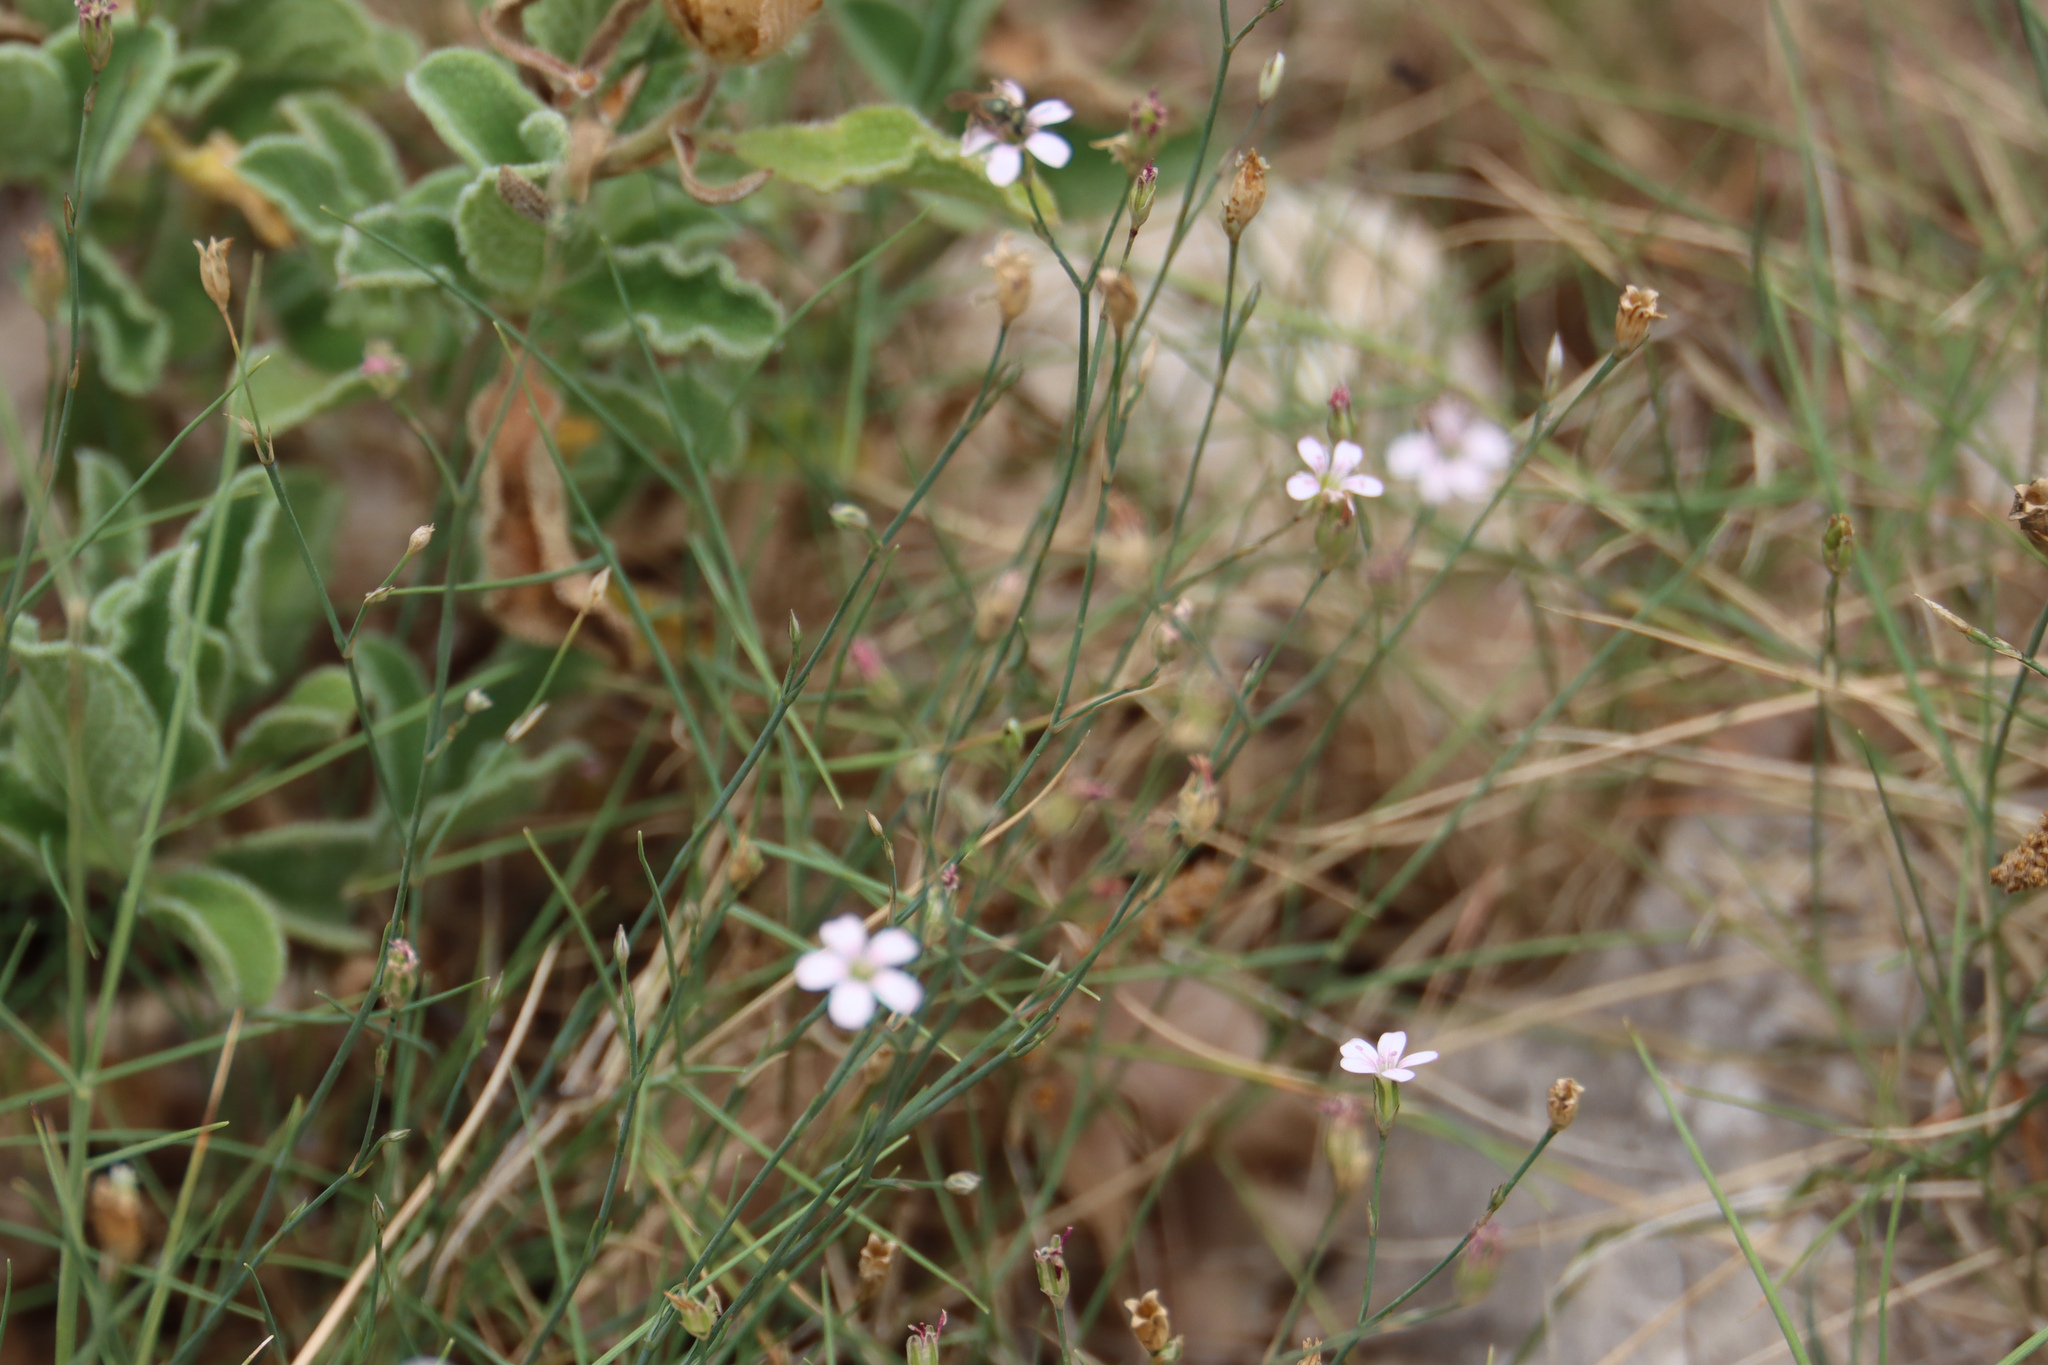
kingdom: Plantae
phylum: Tracheophyta
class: Magnoliopsida
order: Caryophyllales
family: Caryophyllaceae
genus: Petrorhagia
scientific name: Petrorhagia saxifraga
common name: Tunicflower
